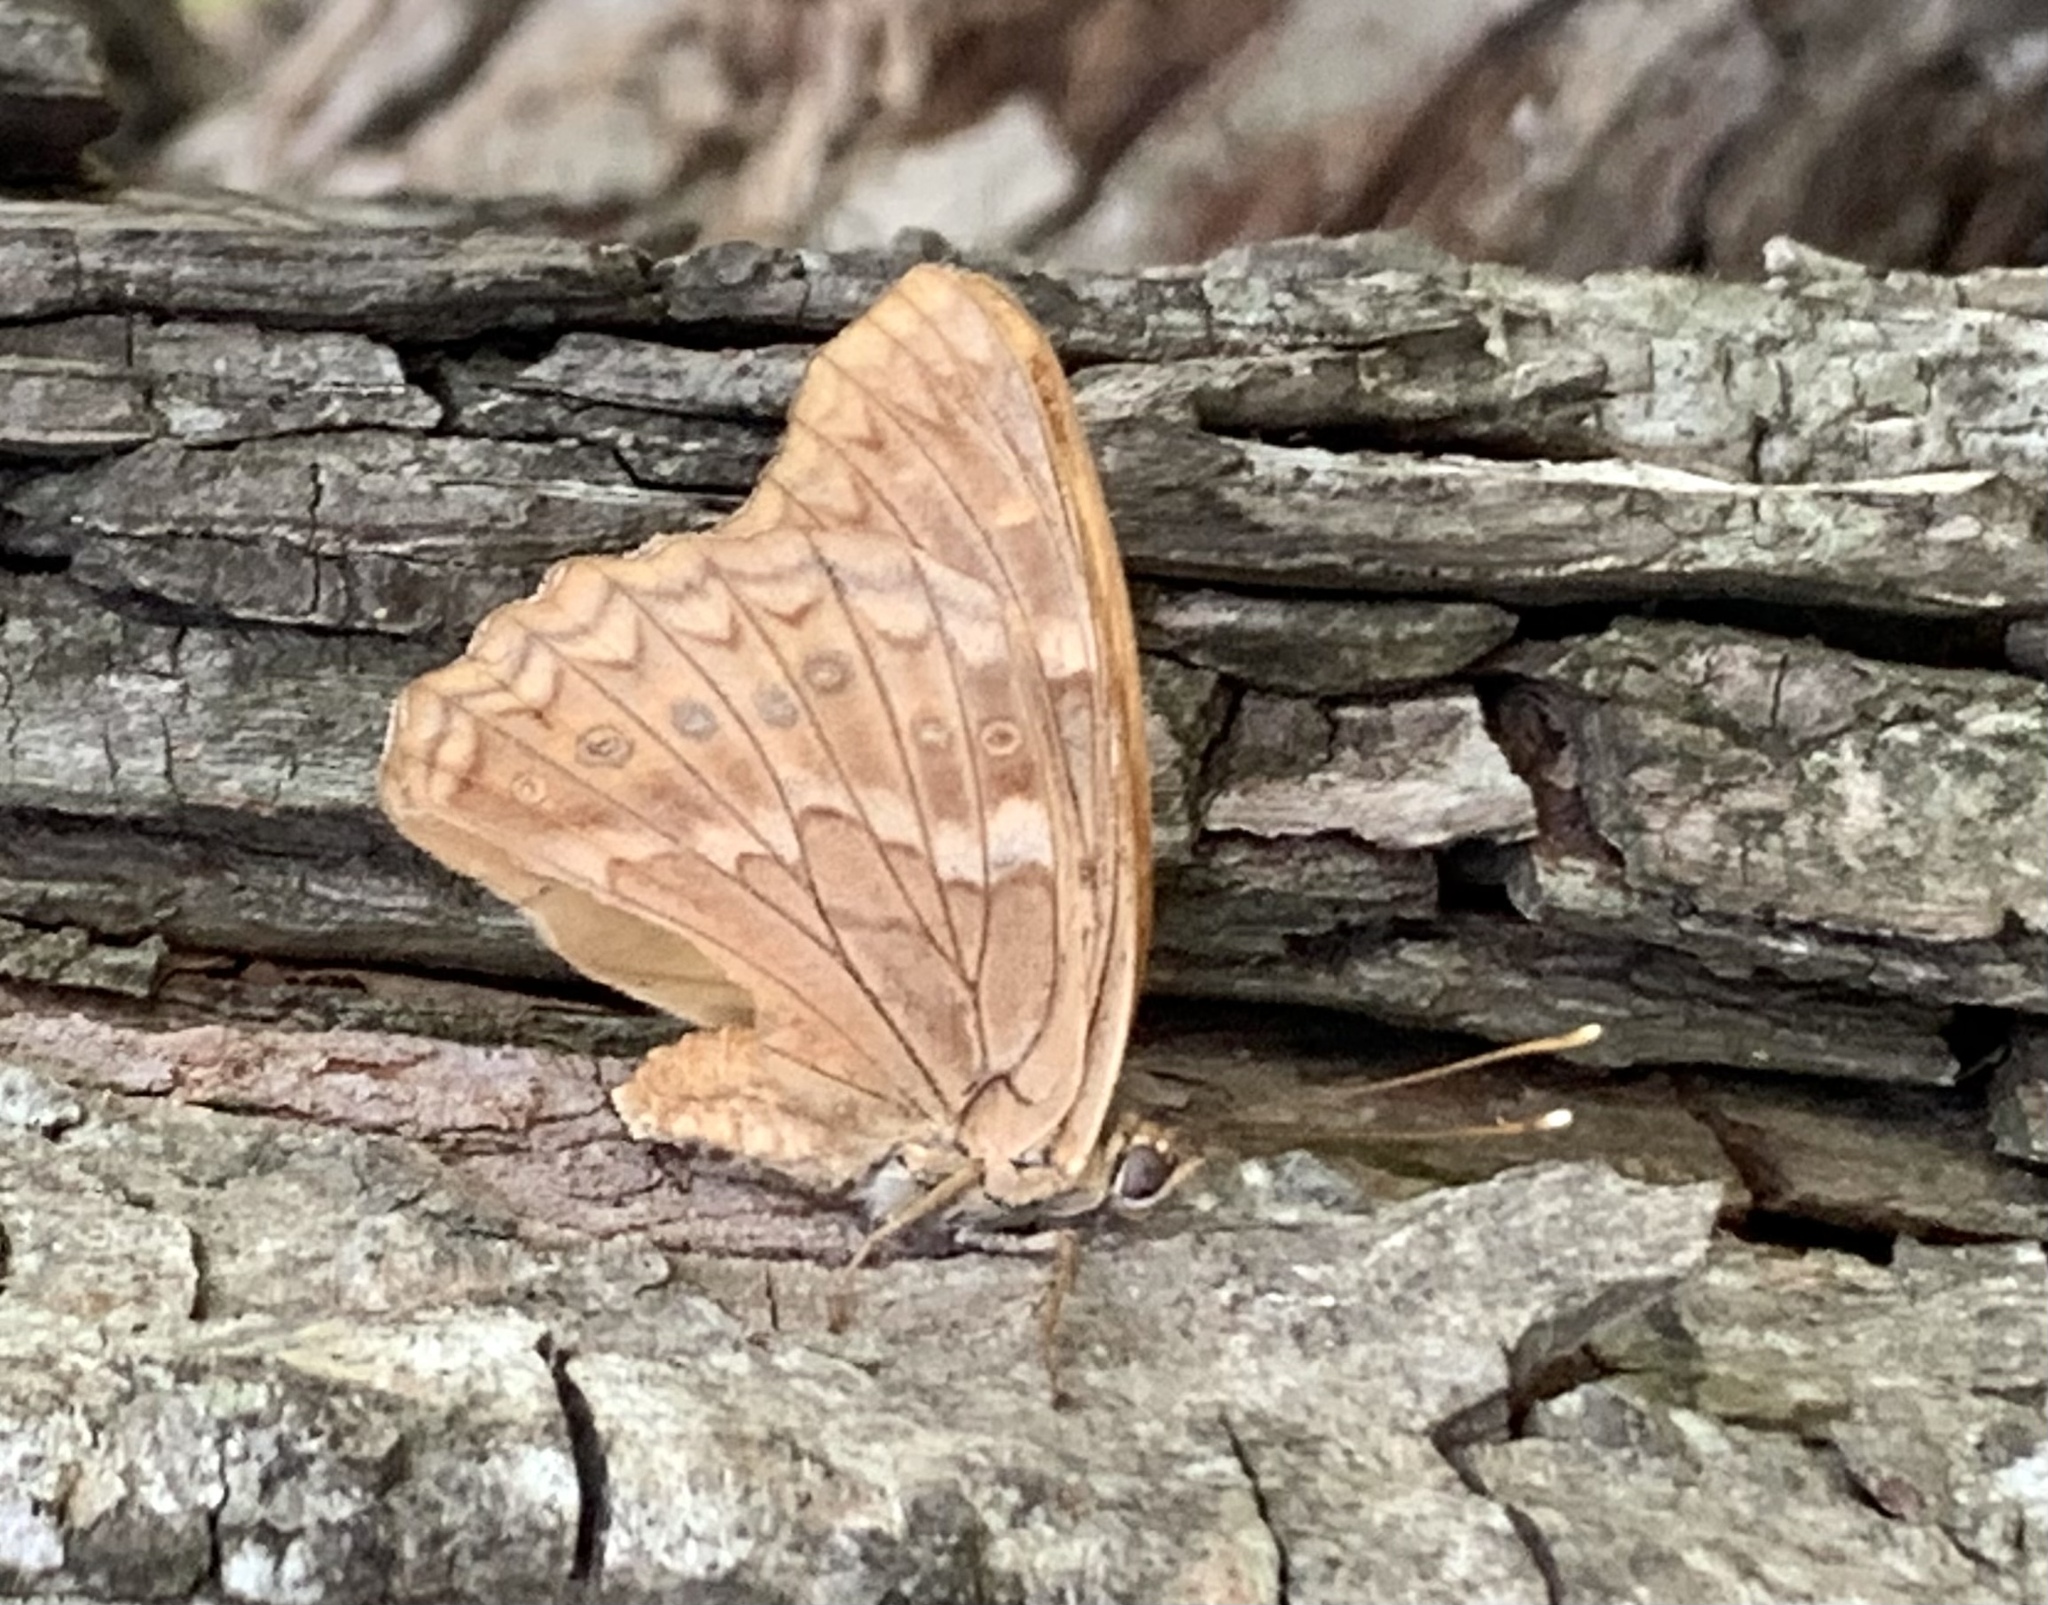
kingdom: Animalia
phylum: Arthropoda
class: Insecta
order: Lepidoptera
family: Nymphalidae
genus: Asterocampa
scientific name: Asterocampa clyton
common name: Tawny emperor
